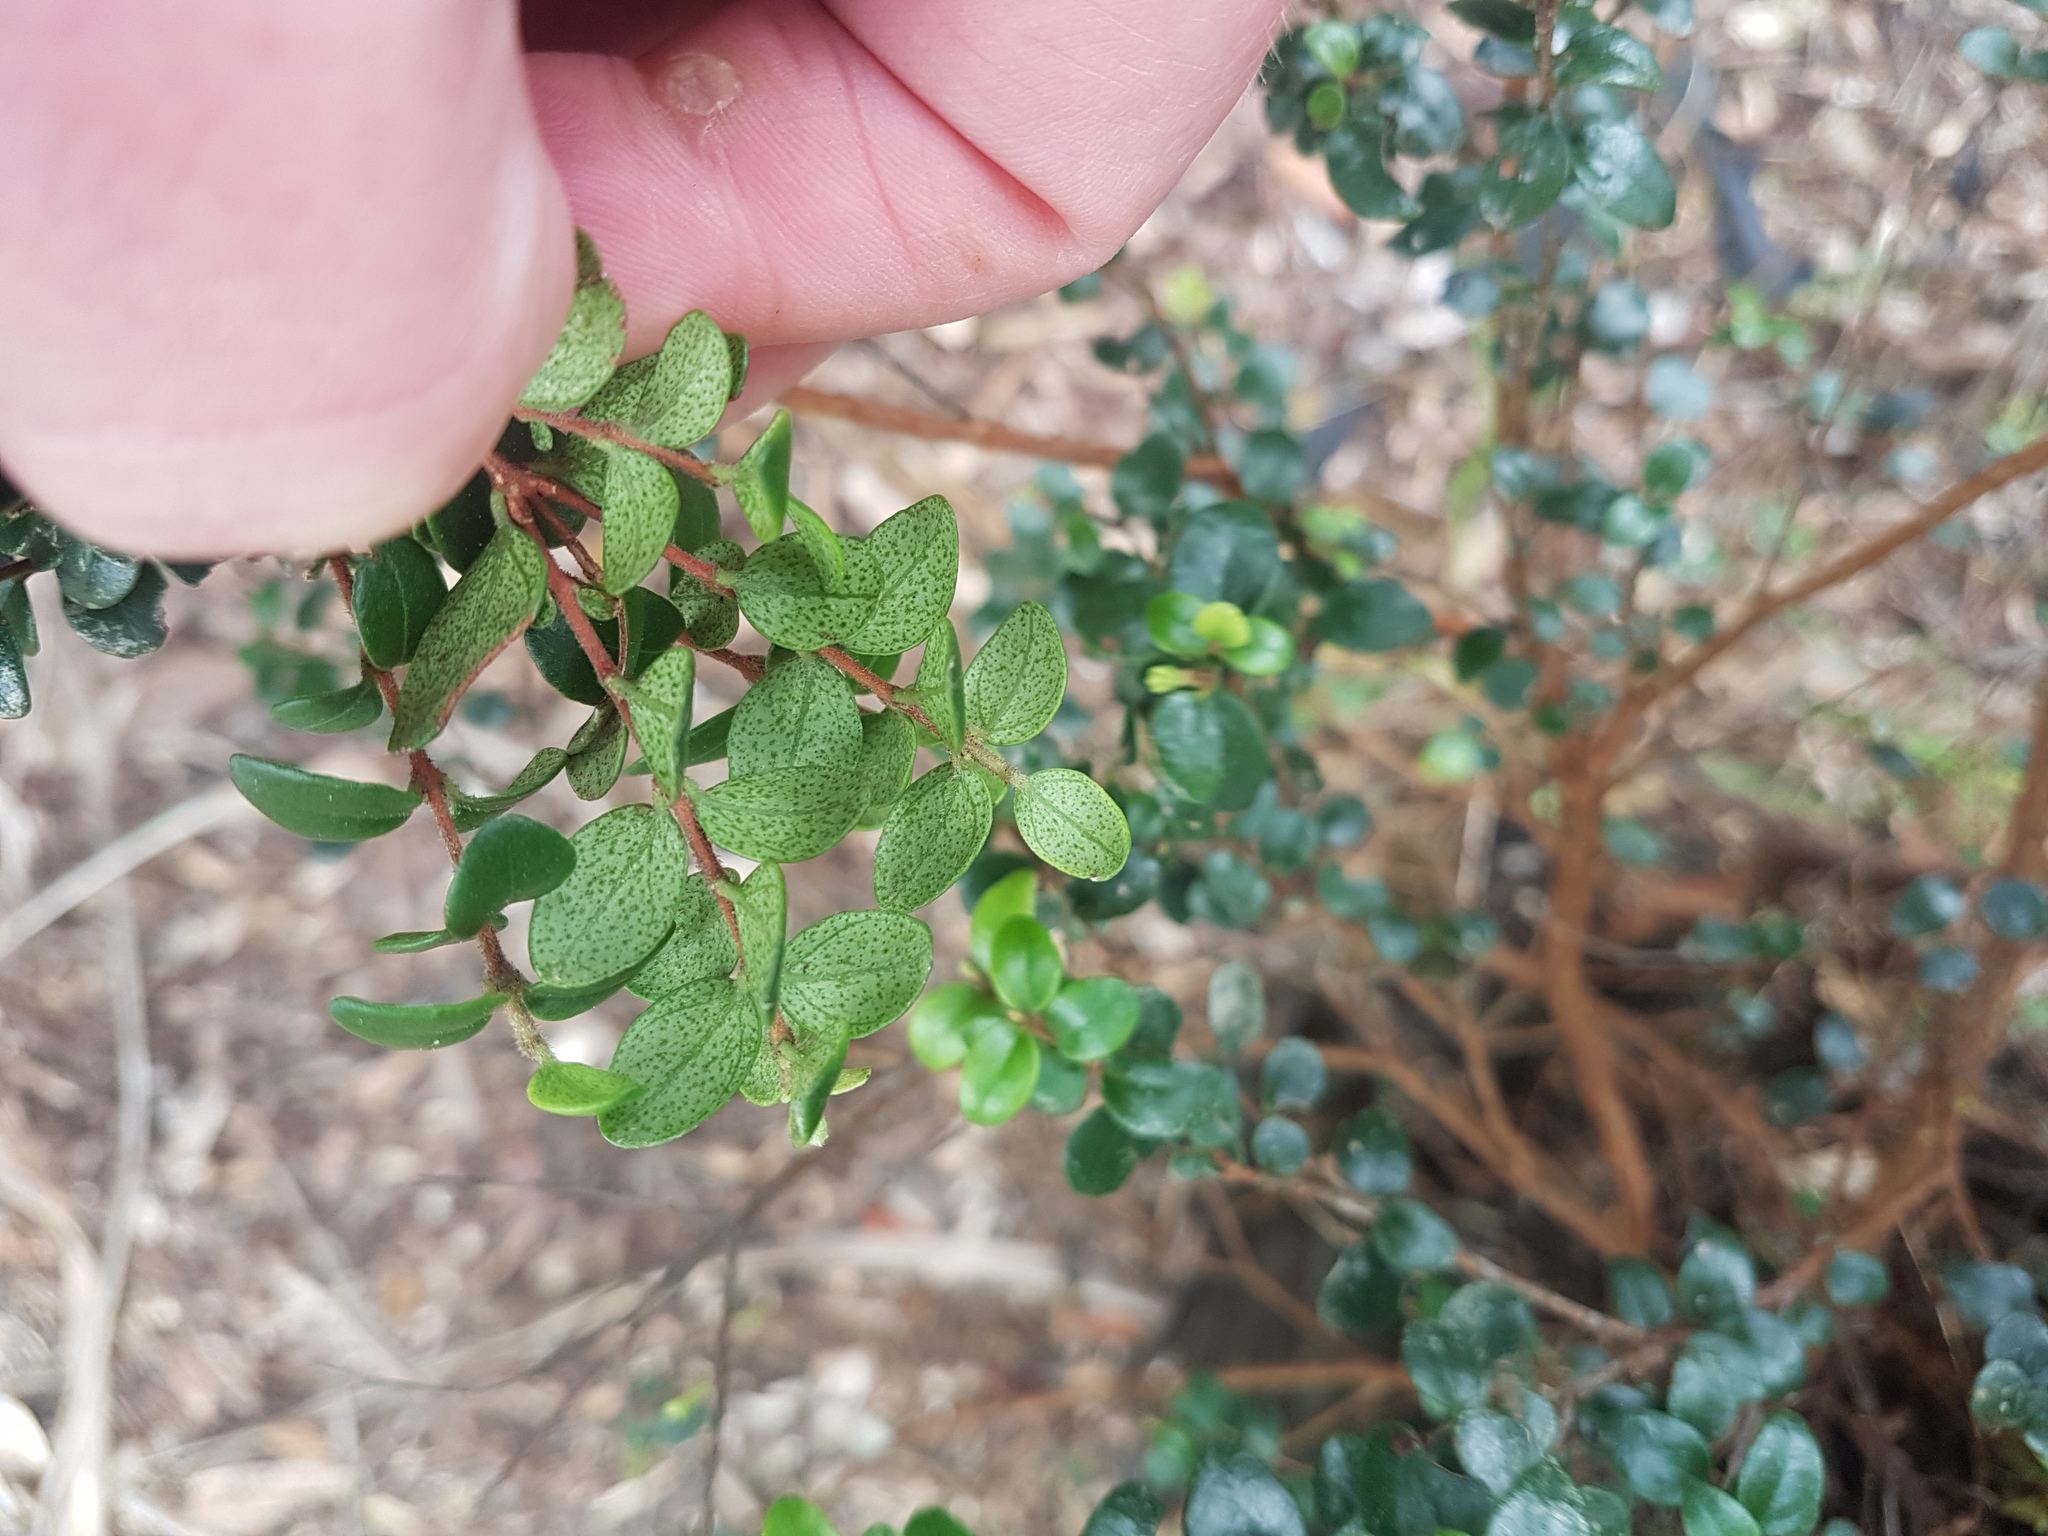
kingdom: Plantae
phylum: Tracheophyta
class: Magnoliopsida
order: Myrtales
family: Myrtaceae
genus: Metrosideros
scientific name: Metrosideros perforata
